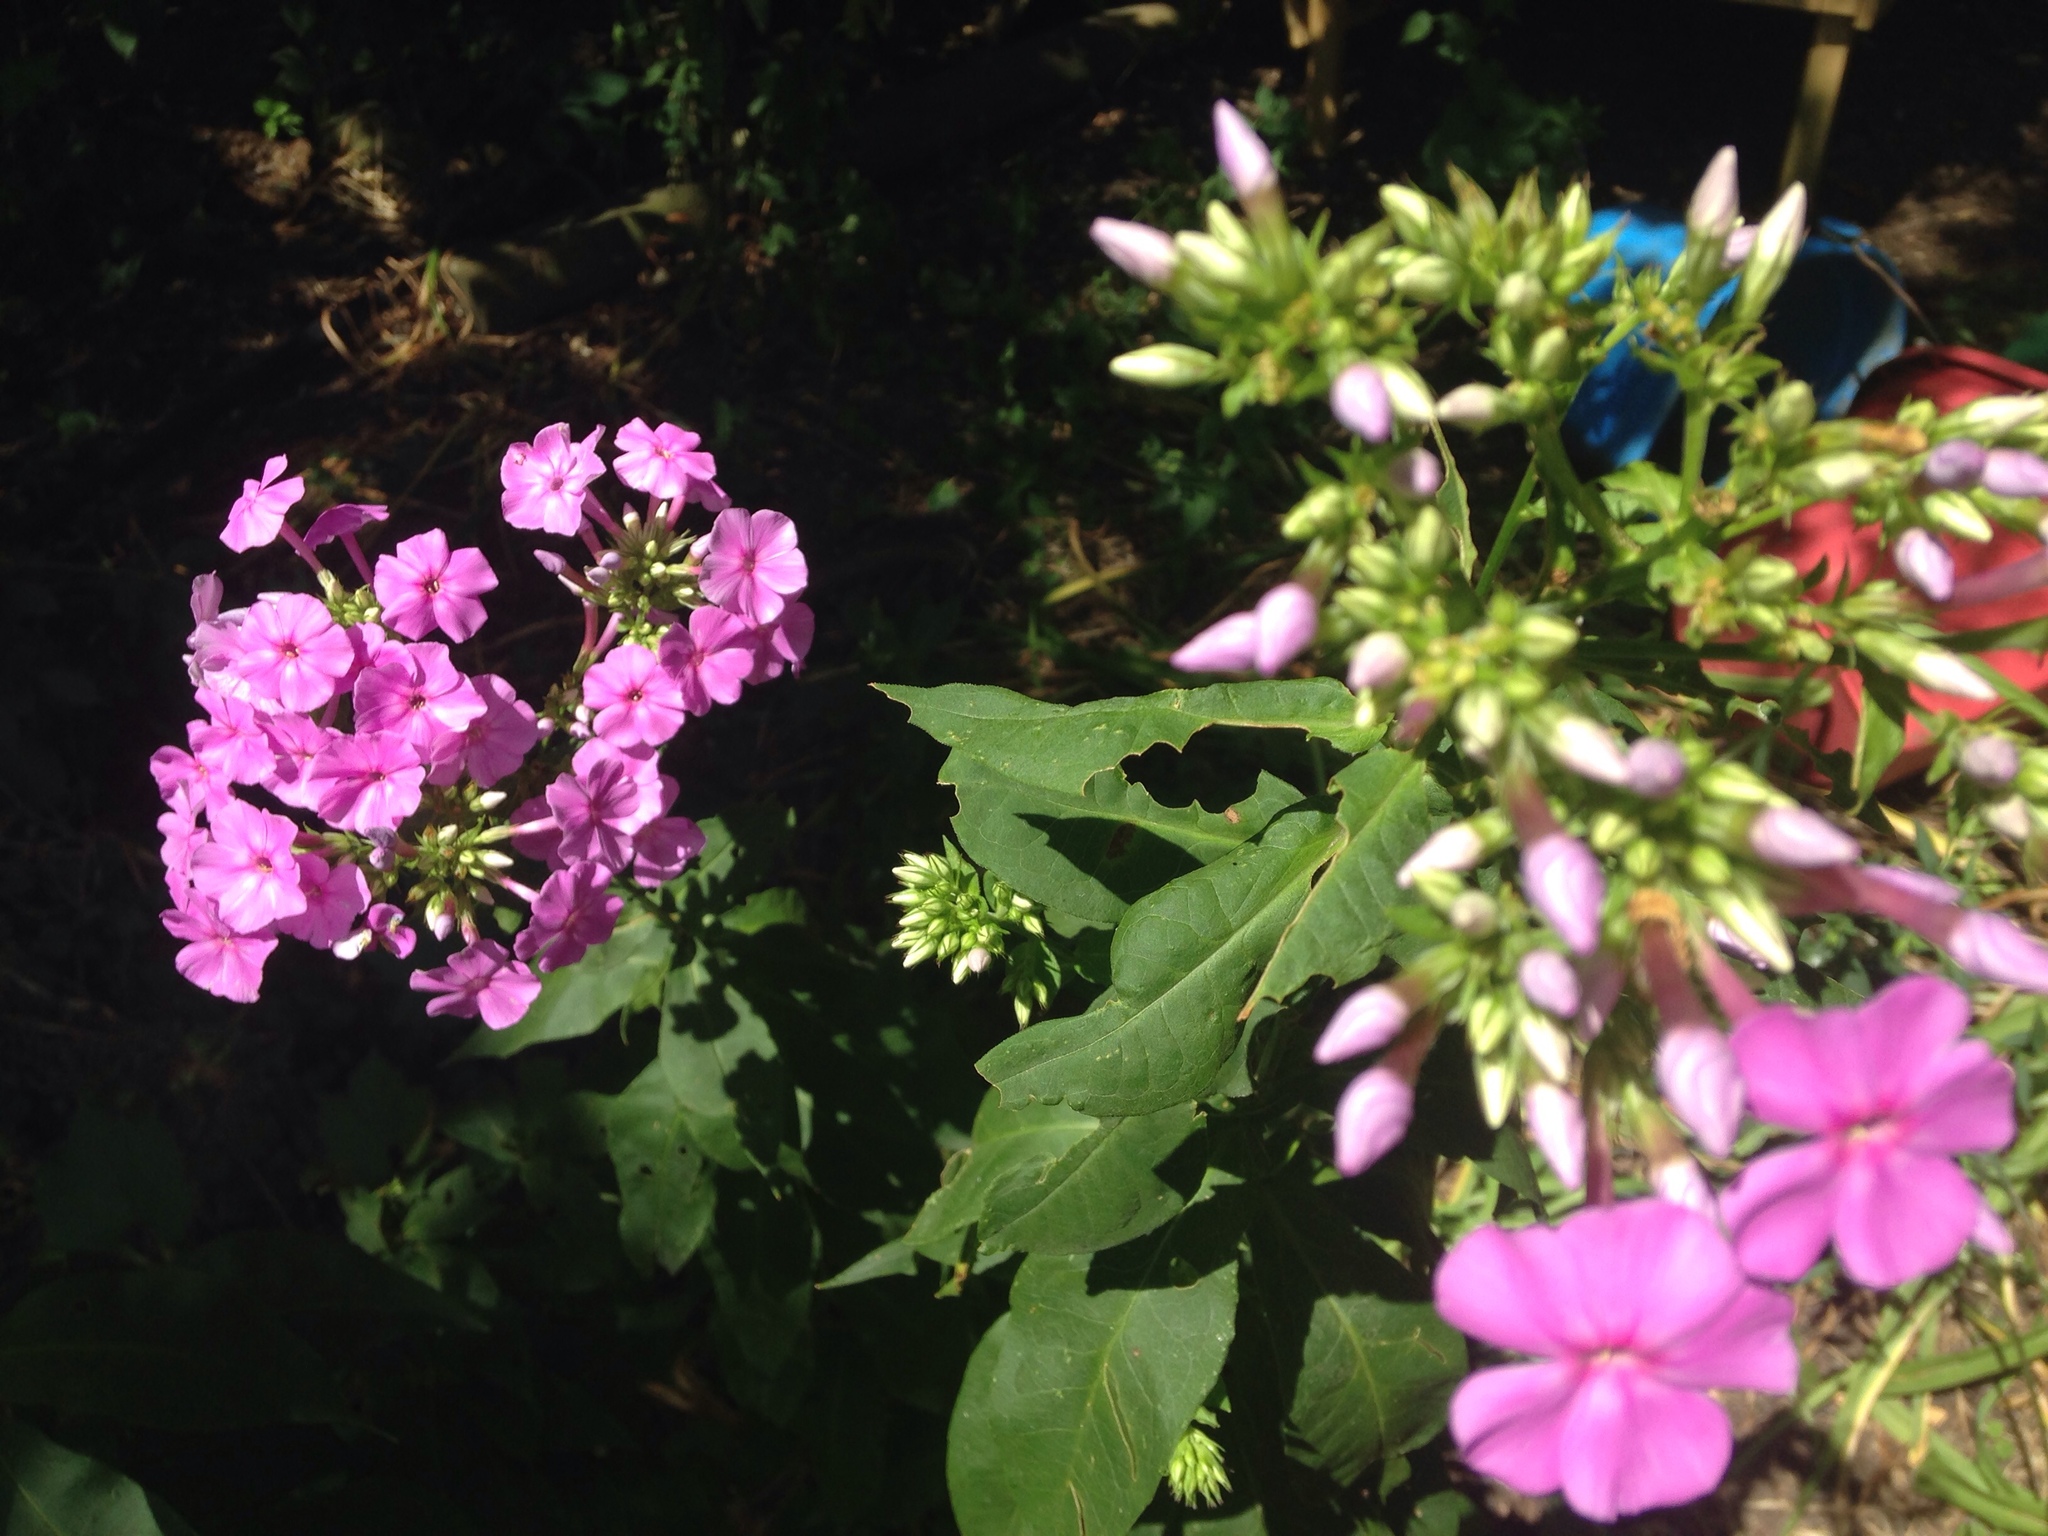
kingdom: Plantae
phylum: Tracheophyta
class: Magnoliopsida
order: Ericales
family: Polemoniaceae
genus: Phlox
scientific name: Phlox paniculata
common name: Fall phlox
